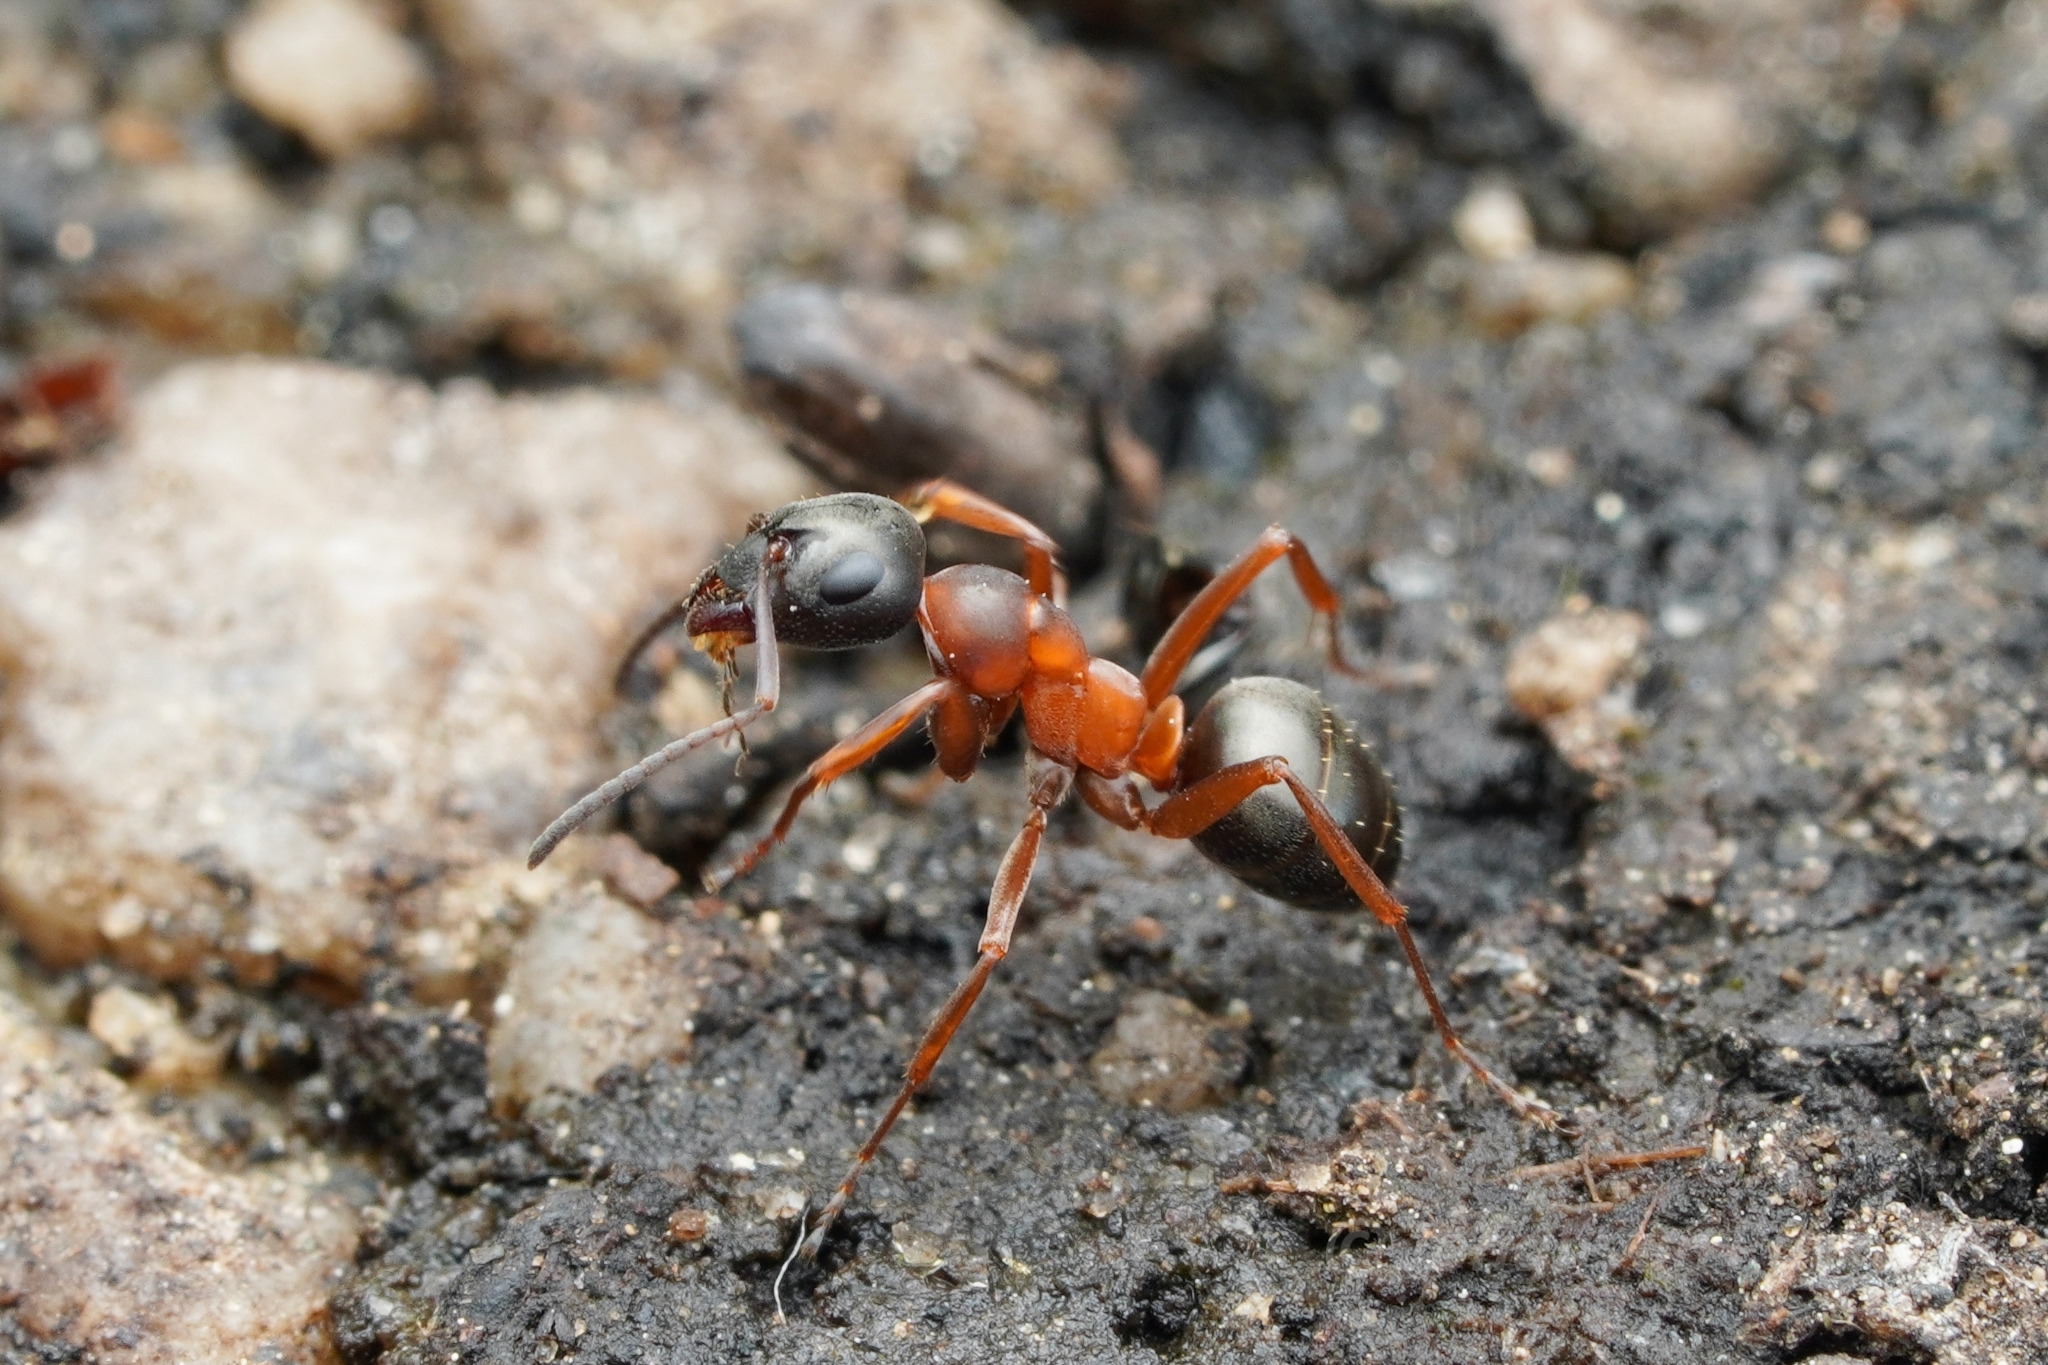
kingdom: Animalia
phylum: Arthropoda
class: Insecta
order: Hymenoptera
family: Formicidae
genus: Formica
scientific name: Formica neorufibarbis
